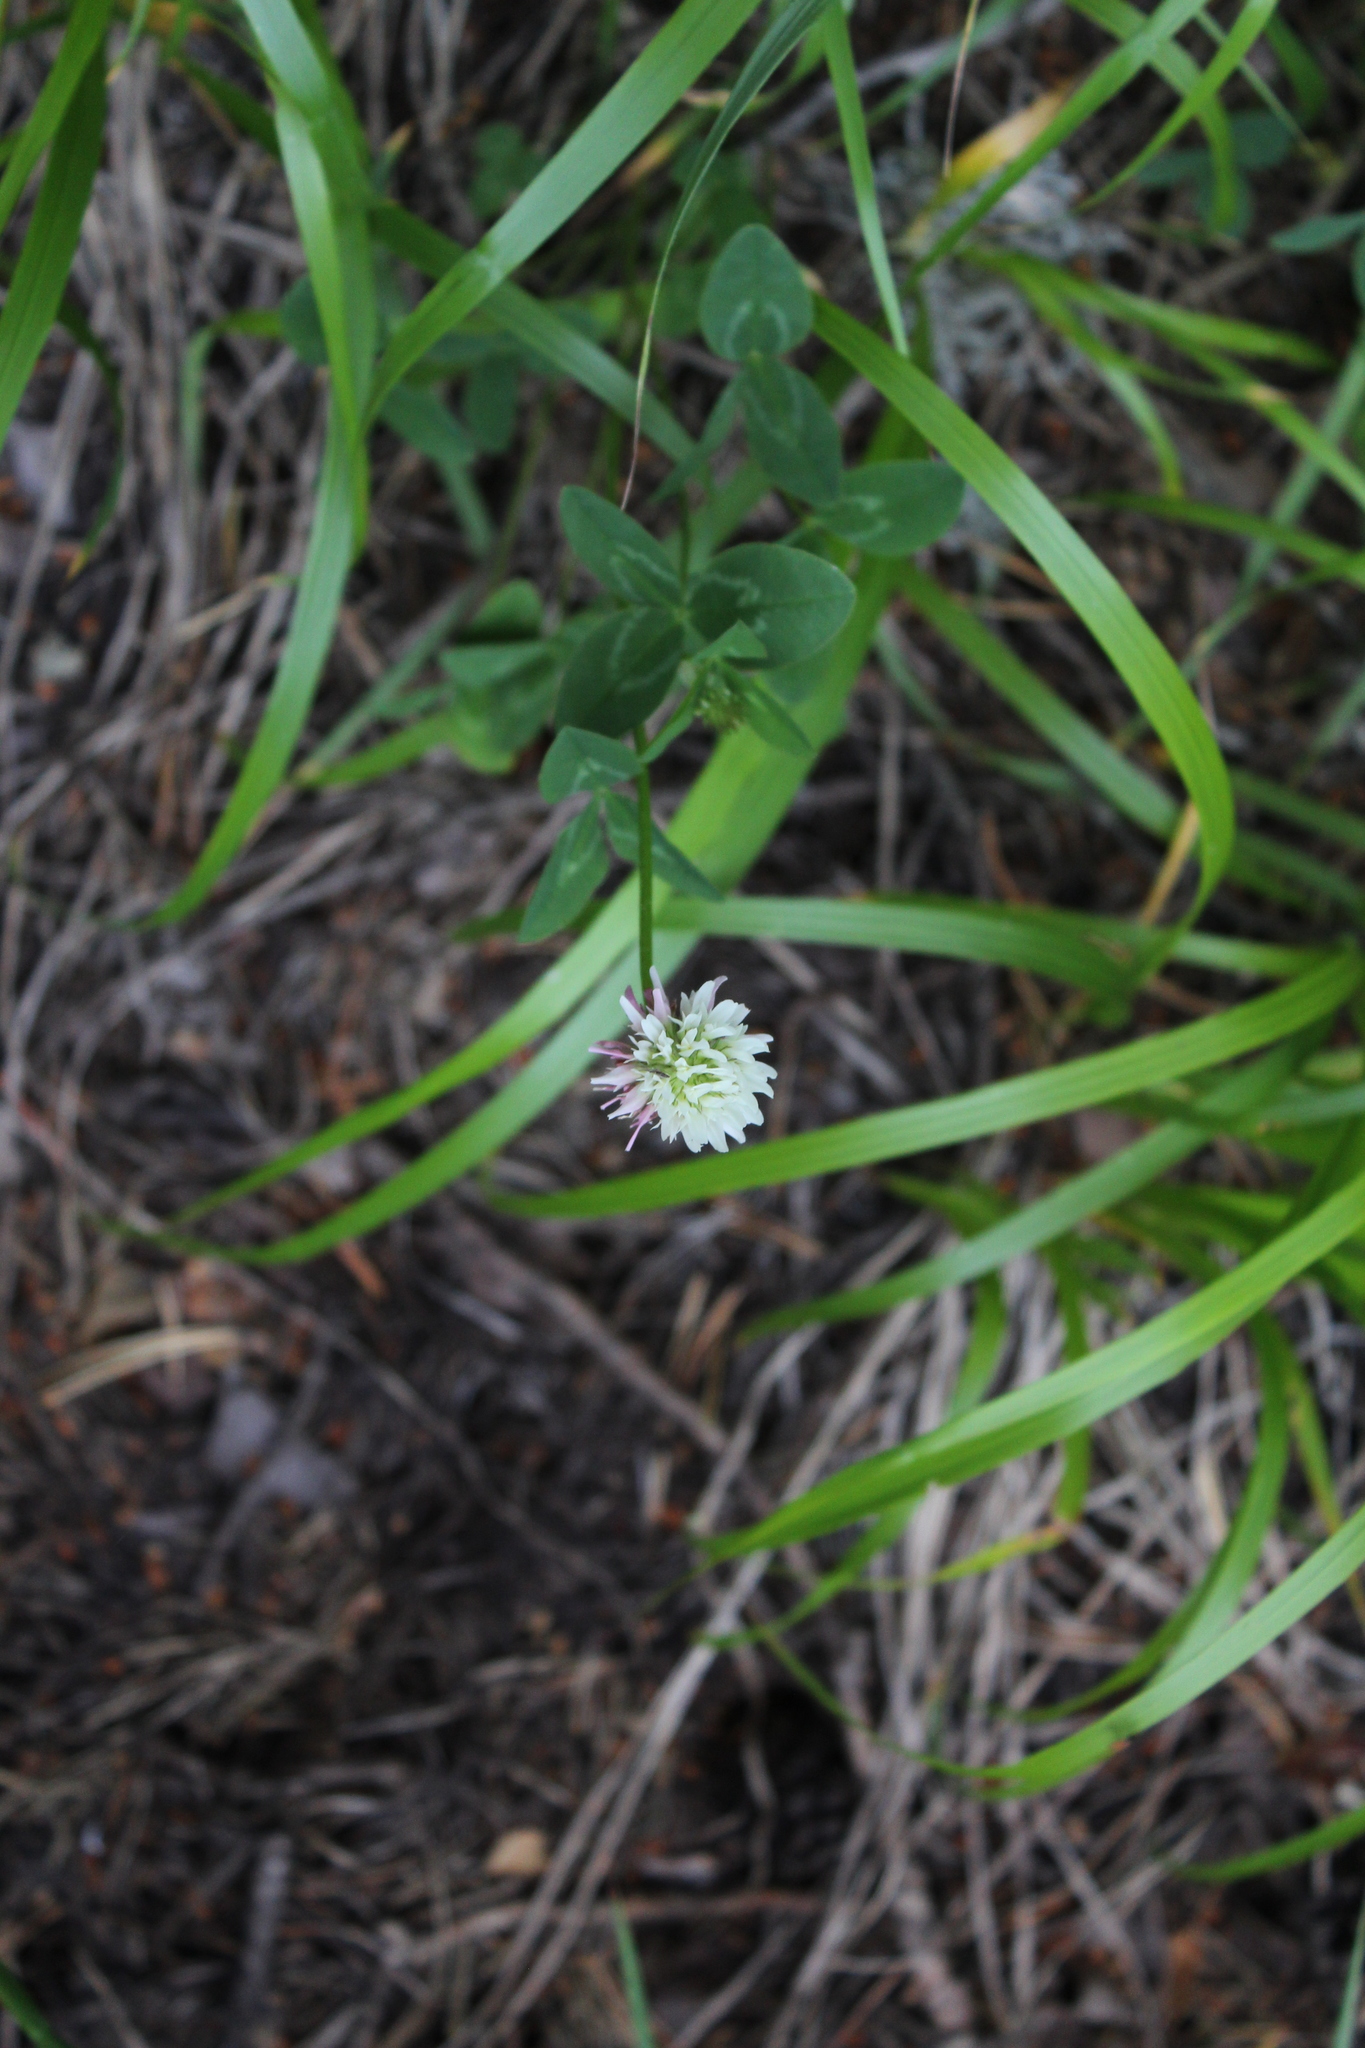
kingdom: Plantae
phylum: Tracheophyta
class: Magnoliopsida
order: Fabales
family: Fabaceae
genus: Trifolium
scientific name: Trifolium ambiguum
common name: Kura clover
